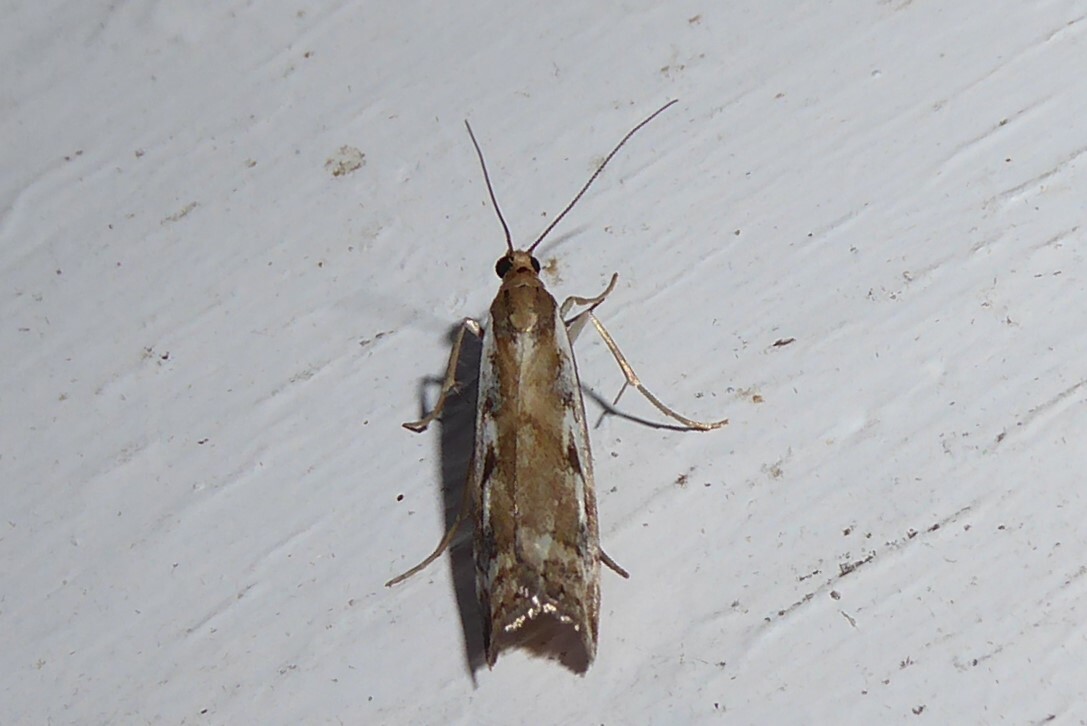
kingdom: Animalia
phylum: Arthropoda
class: Insecta
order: Lepidoptera
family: Crambidae
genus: Orocrambus
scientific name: Orocrambus vulgaris
